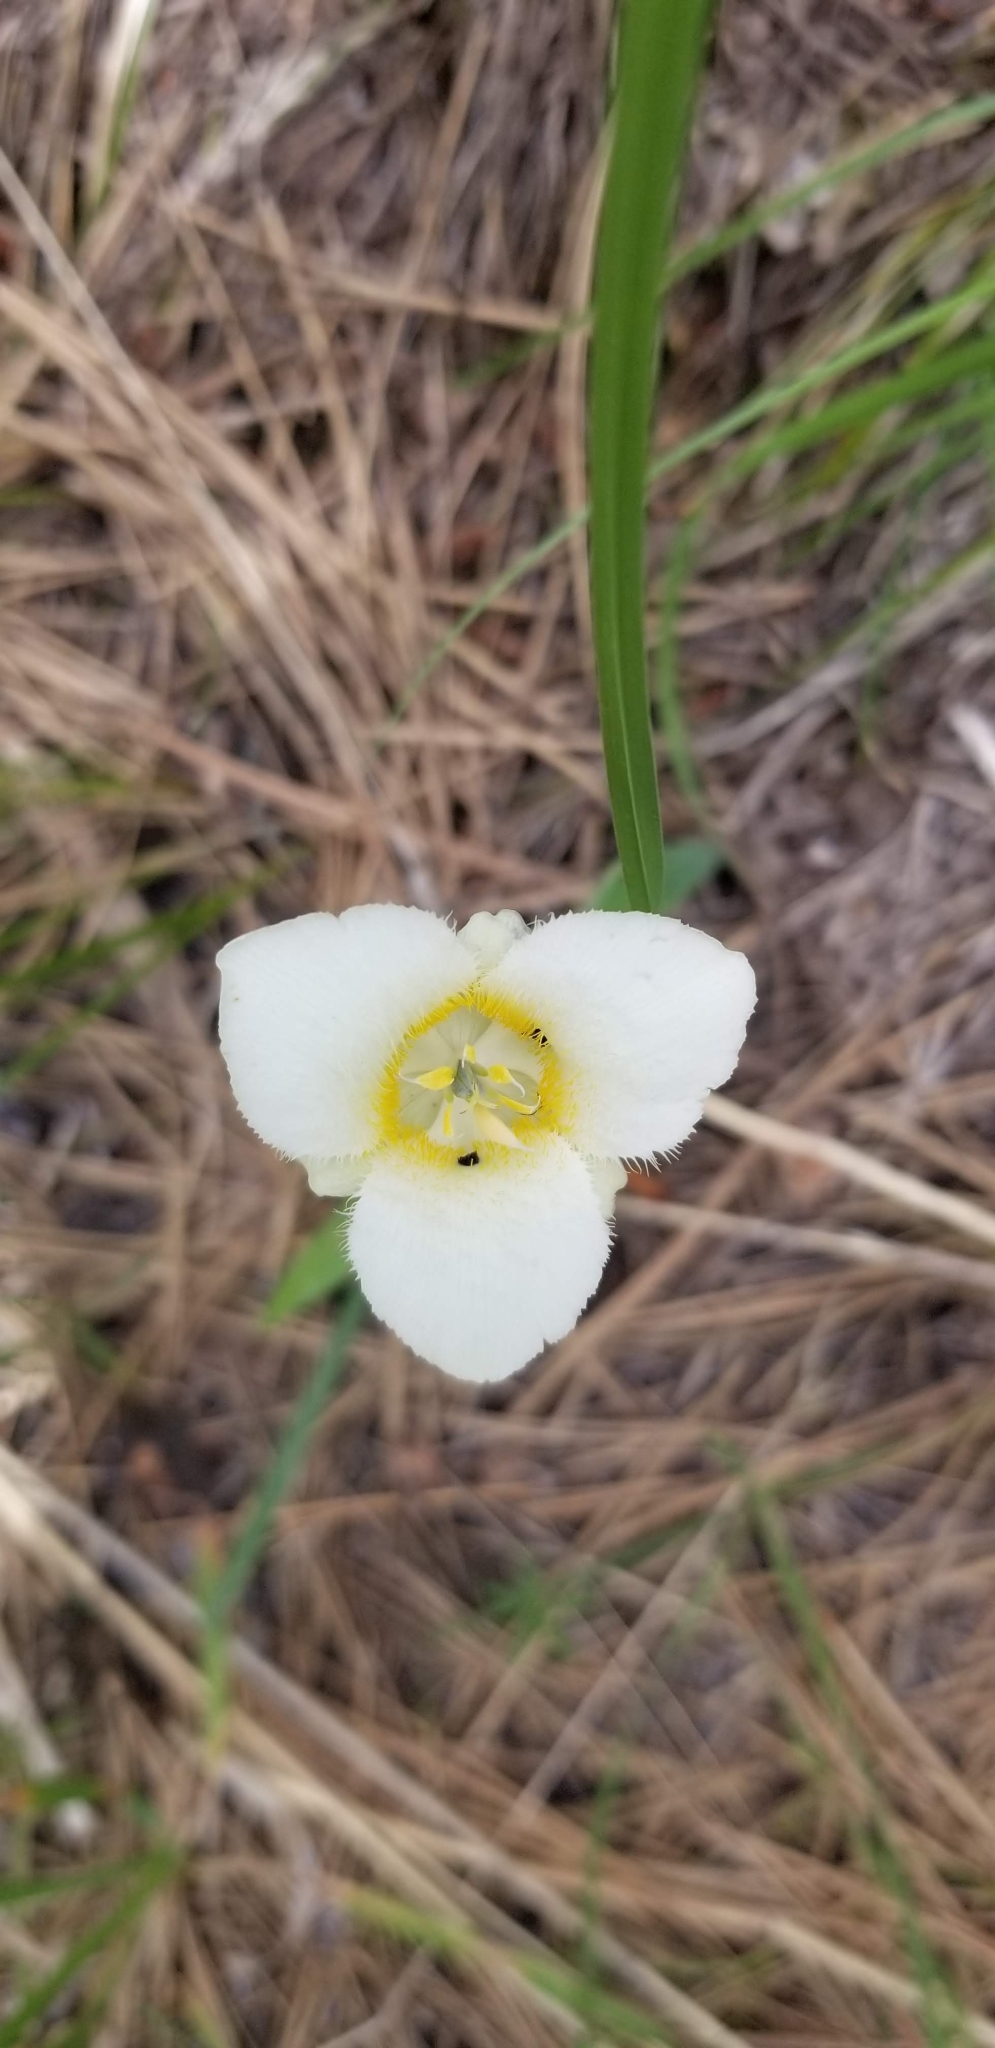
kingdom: Plantae
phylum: Tracheophyta
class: Liliopsida
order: Liliales
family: Liliaceae
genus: Calochortus
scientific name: Calochortus apiculatus
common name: Baker's mariposa lily
